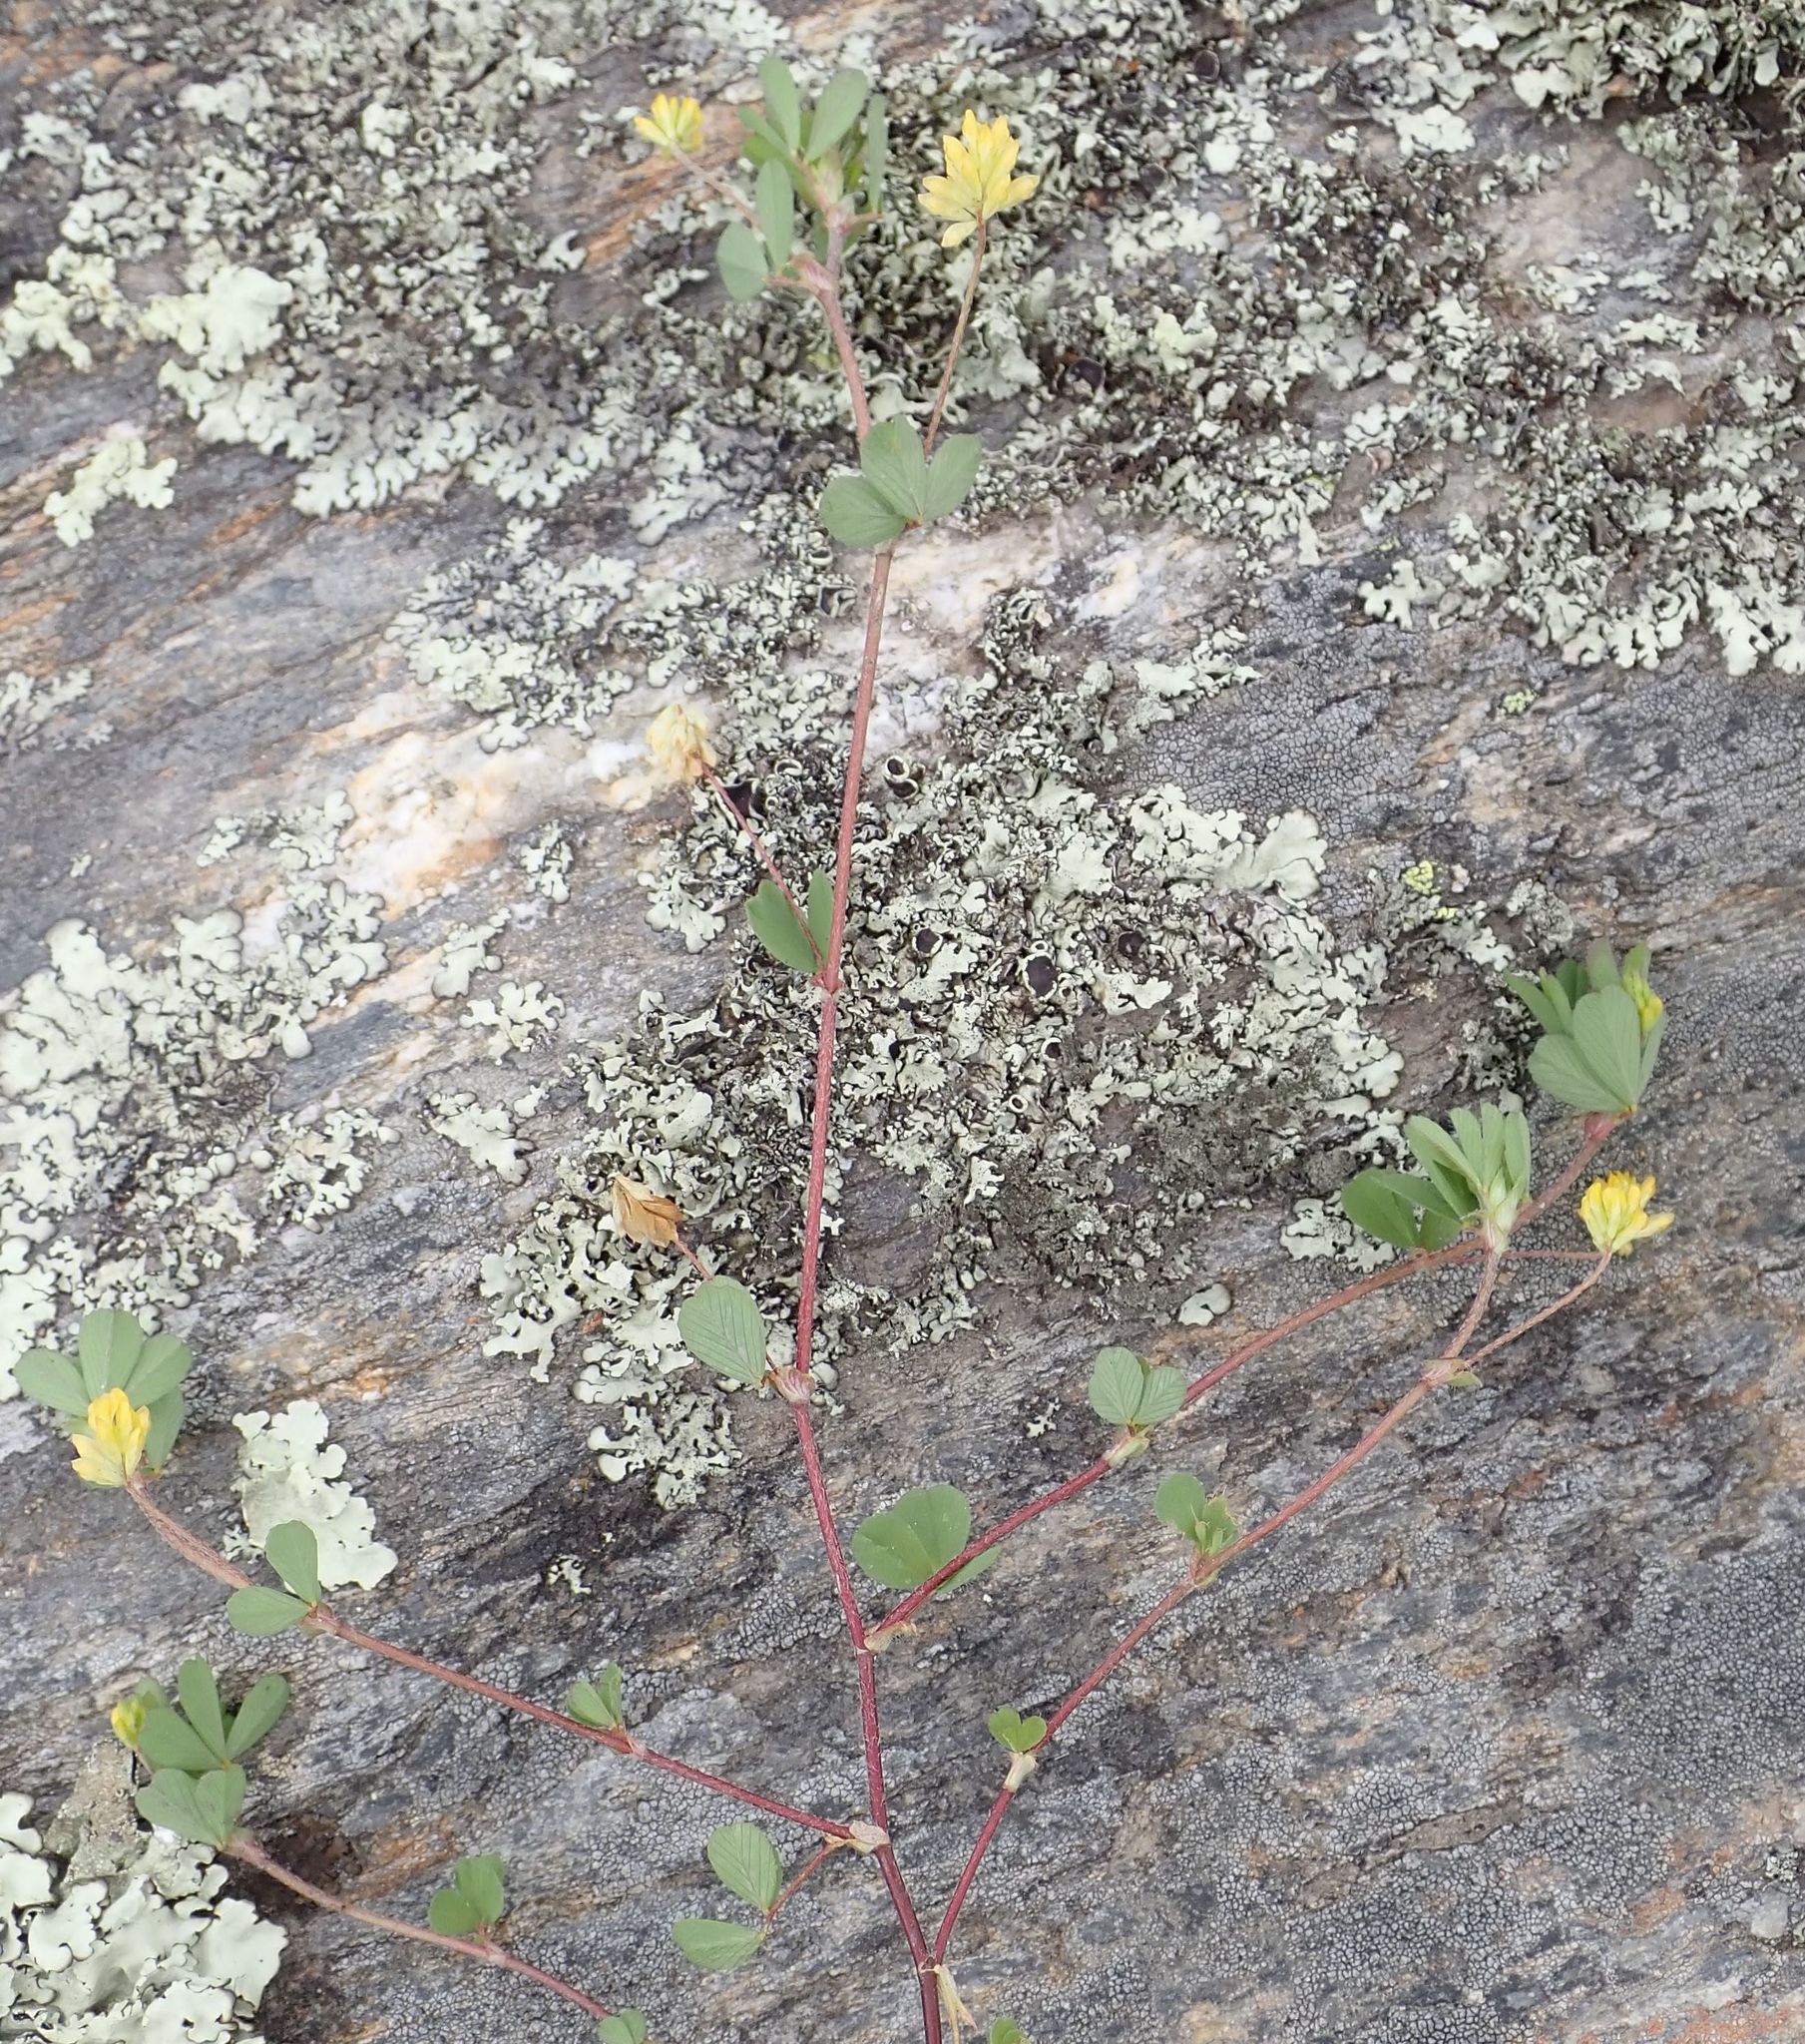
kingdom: Plantae
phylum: Tracheophyta
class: Magnoliopsida
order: Fabales
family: Fabaceae
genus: Trifolium
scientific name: Trifolium dubium
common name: Suckling clover
